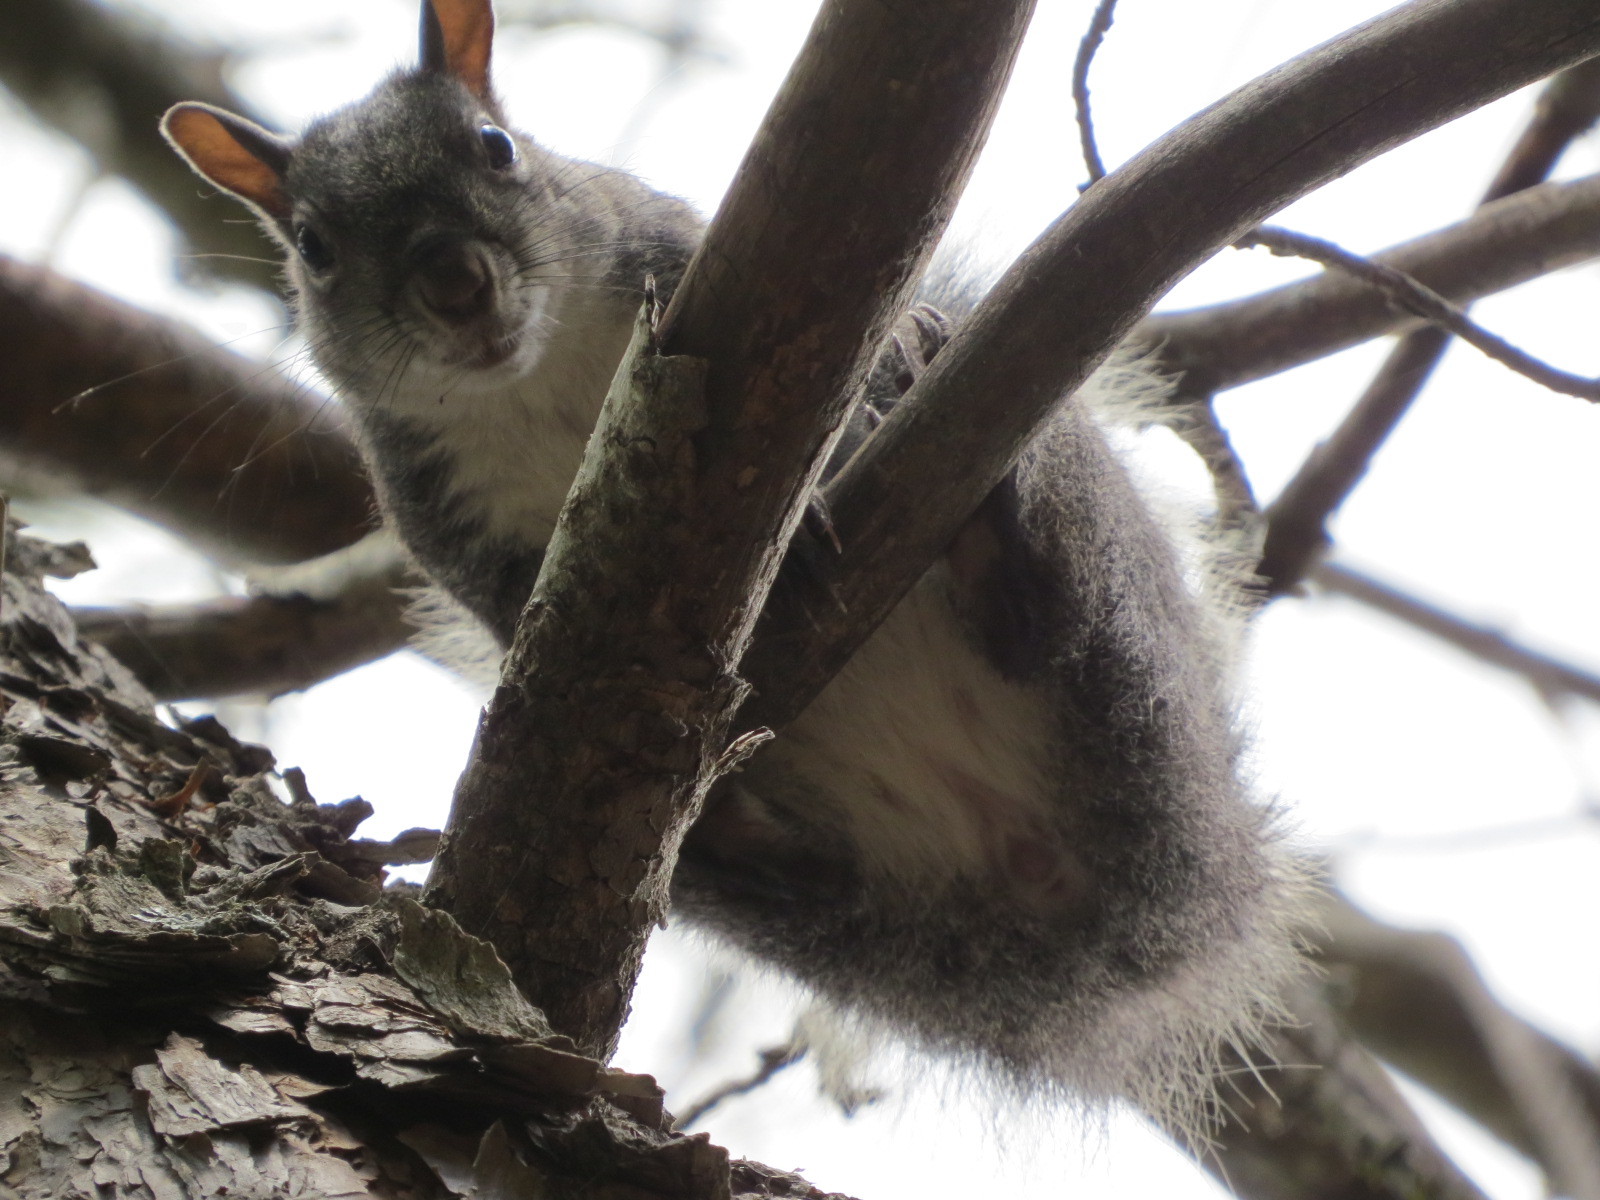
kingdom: Animalia
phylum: Chordata
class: Mammalia
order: Rodentia
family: Sciuridae
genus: Sciurus
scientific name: Sciurus griseus
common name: Western gray squirrel
